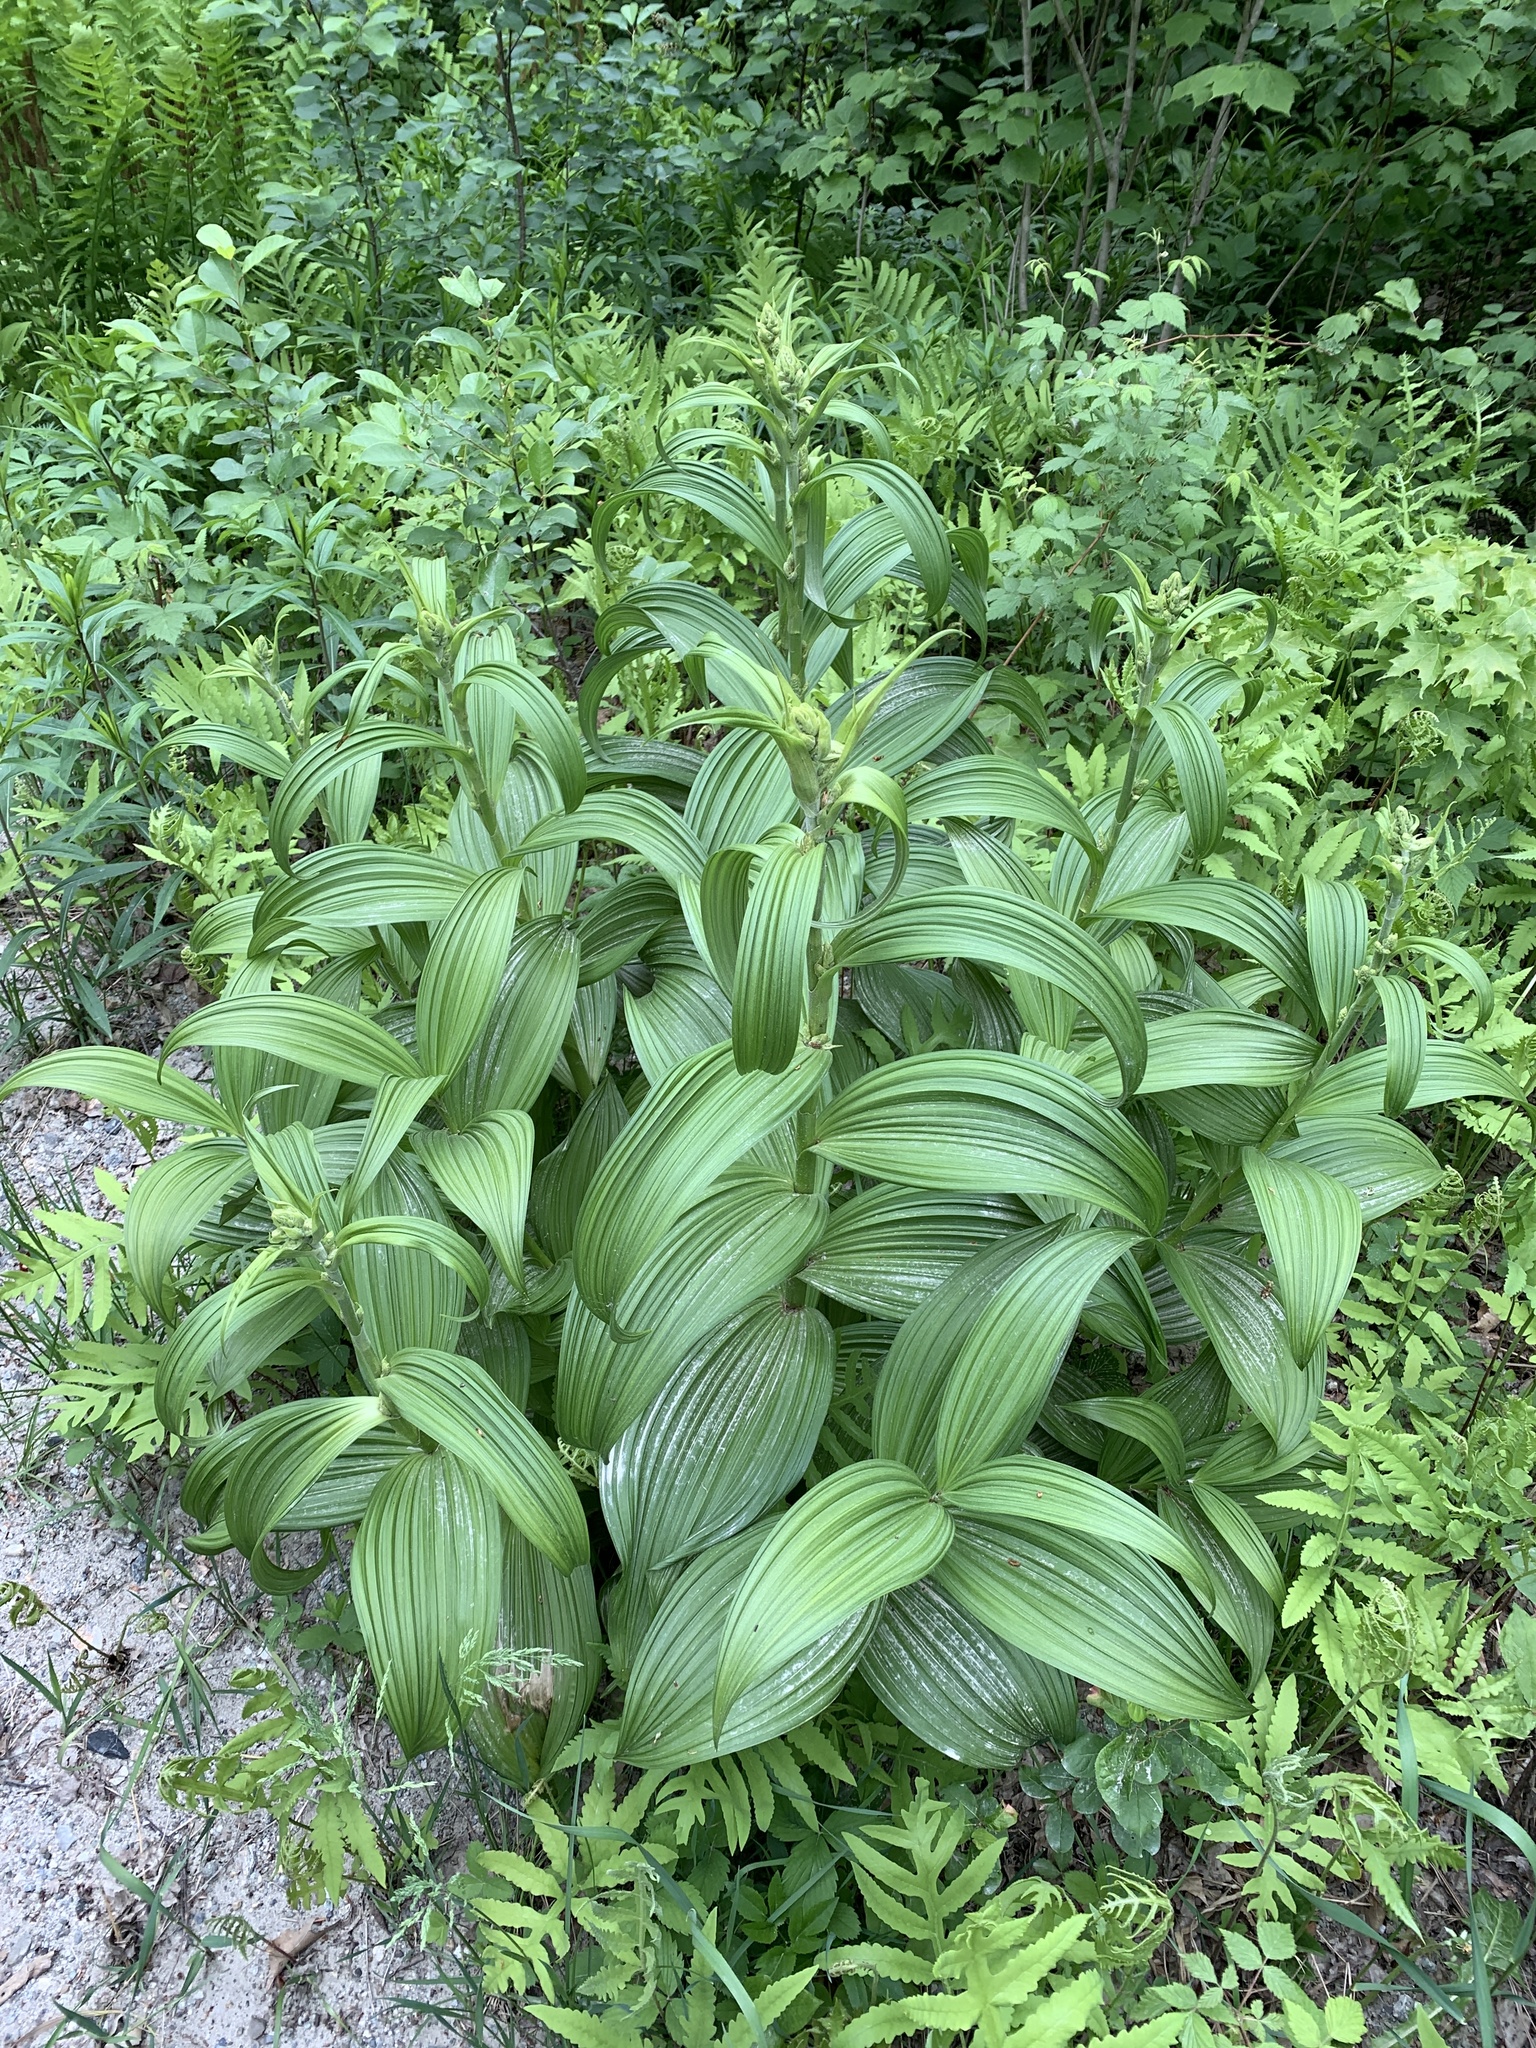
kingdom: Plantae
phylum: Tracheophyta
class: Liliopsida
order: Liliales
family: Melanthiaceae
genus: Veratrum
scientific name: Veratrum viride
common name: American false hellebore
